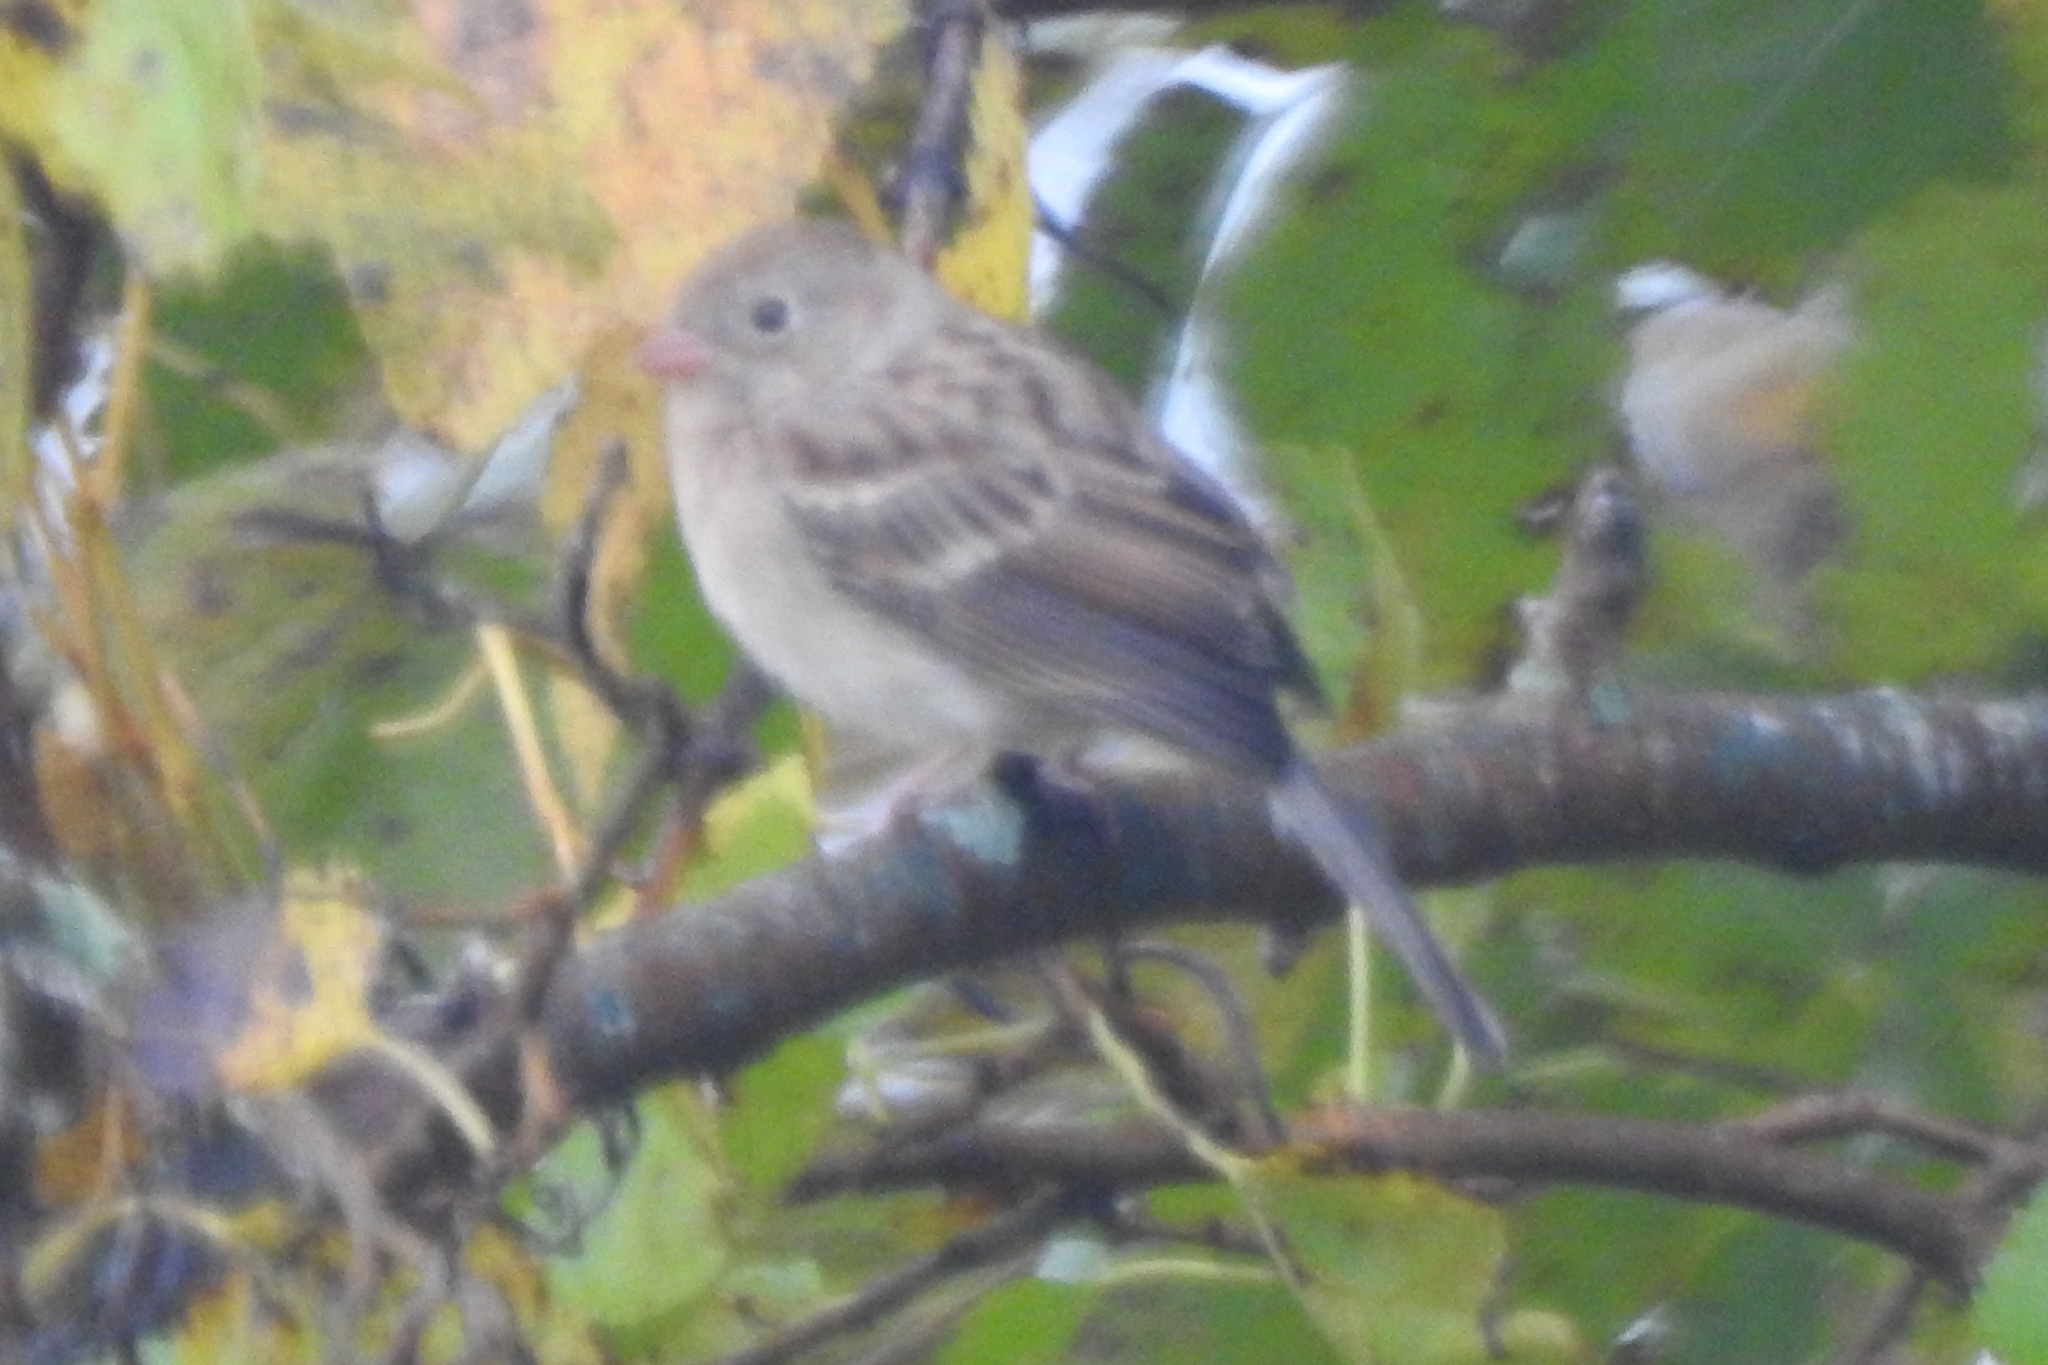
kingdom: Animalia
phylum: Chordata
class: Aves
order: Passeriformes
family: Passerellidae
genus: Spizella
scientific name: Spizella pusilla
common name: Field sparrow
